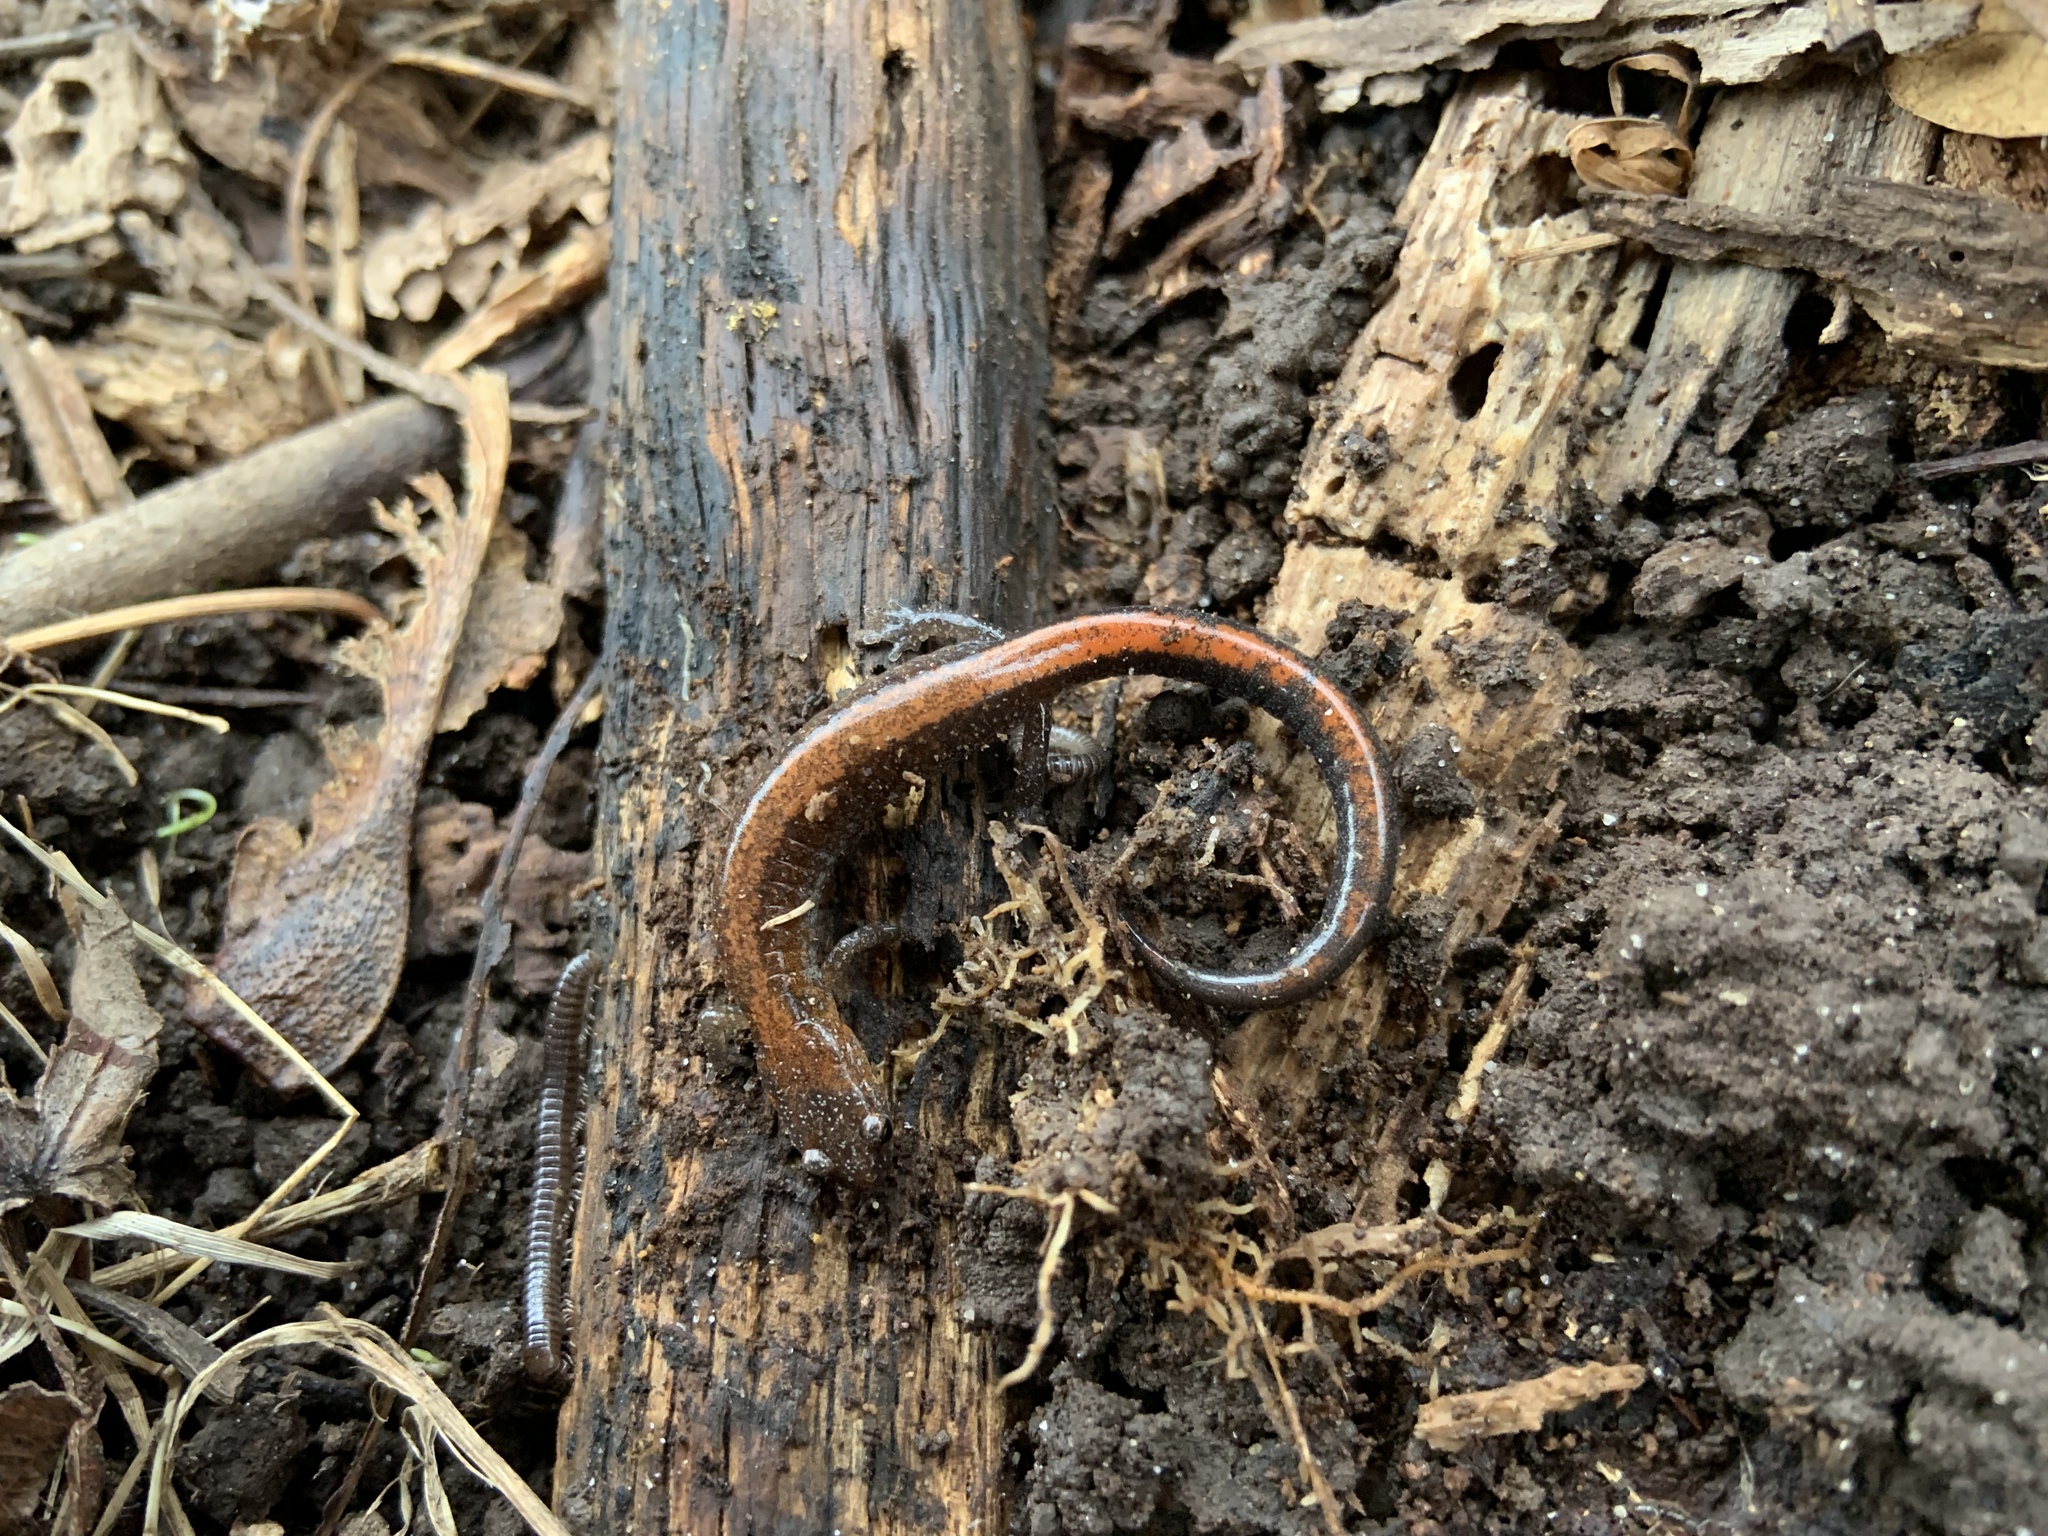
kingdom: Animalia
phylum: Chordata
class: Amphibia
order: Caudata
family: Plethodontidae
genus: Plethodon
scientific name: Plethodon cinereus
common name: Redback salamander
